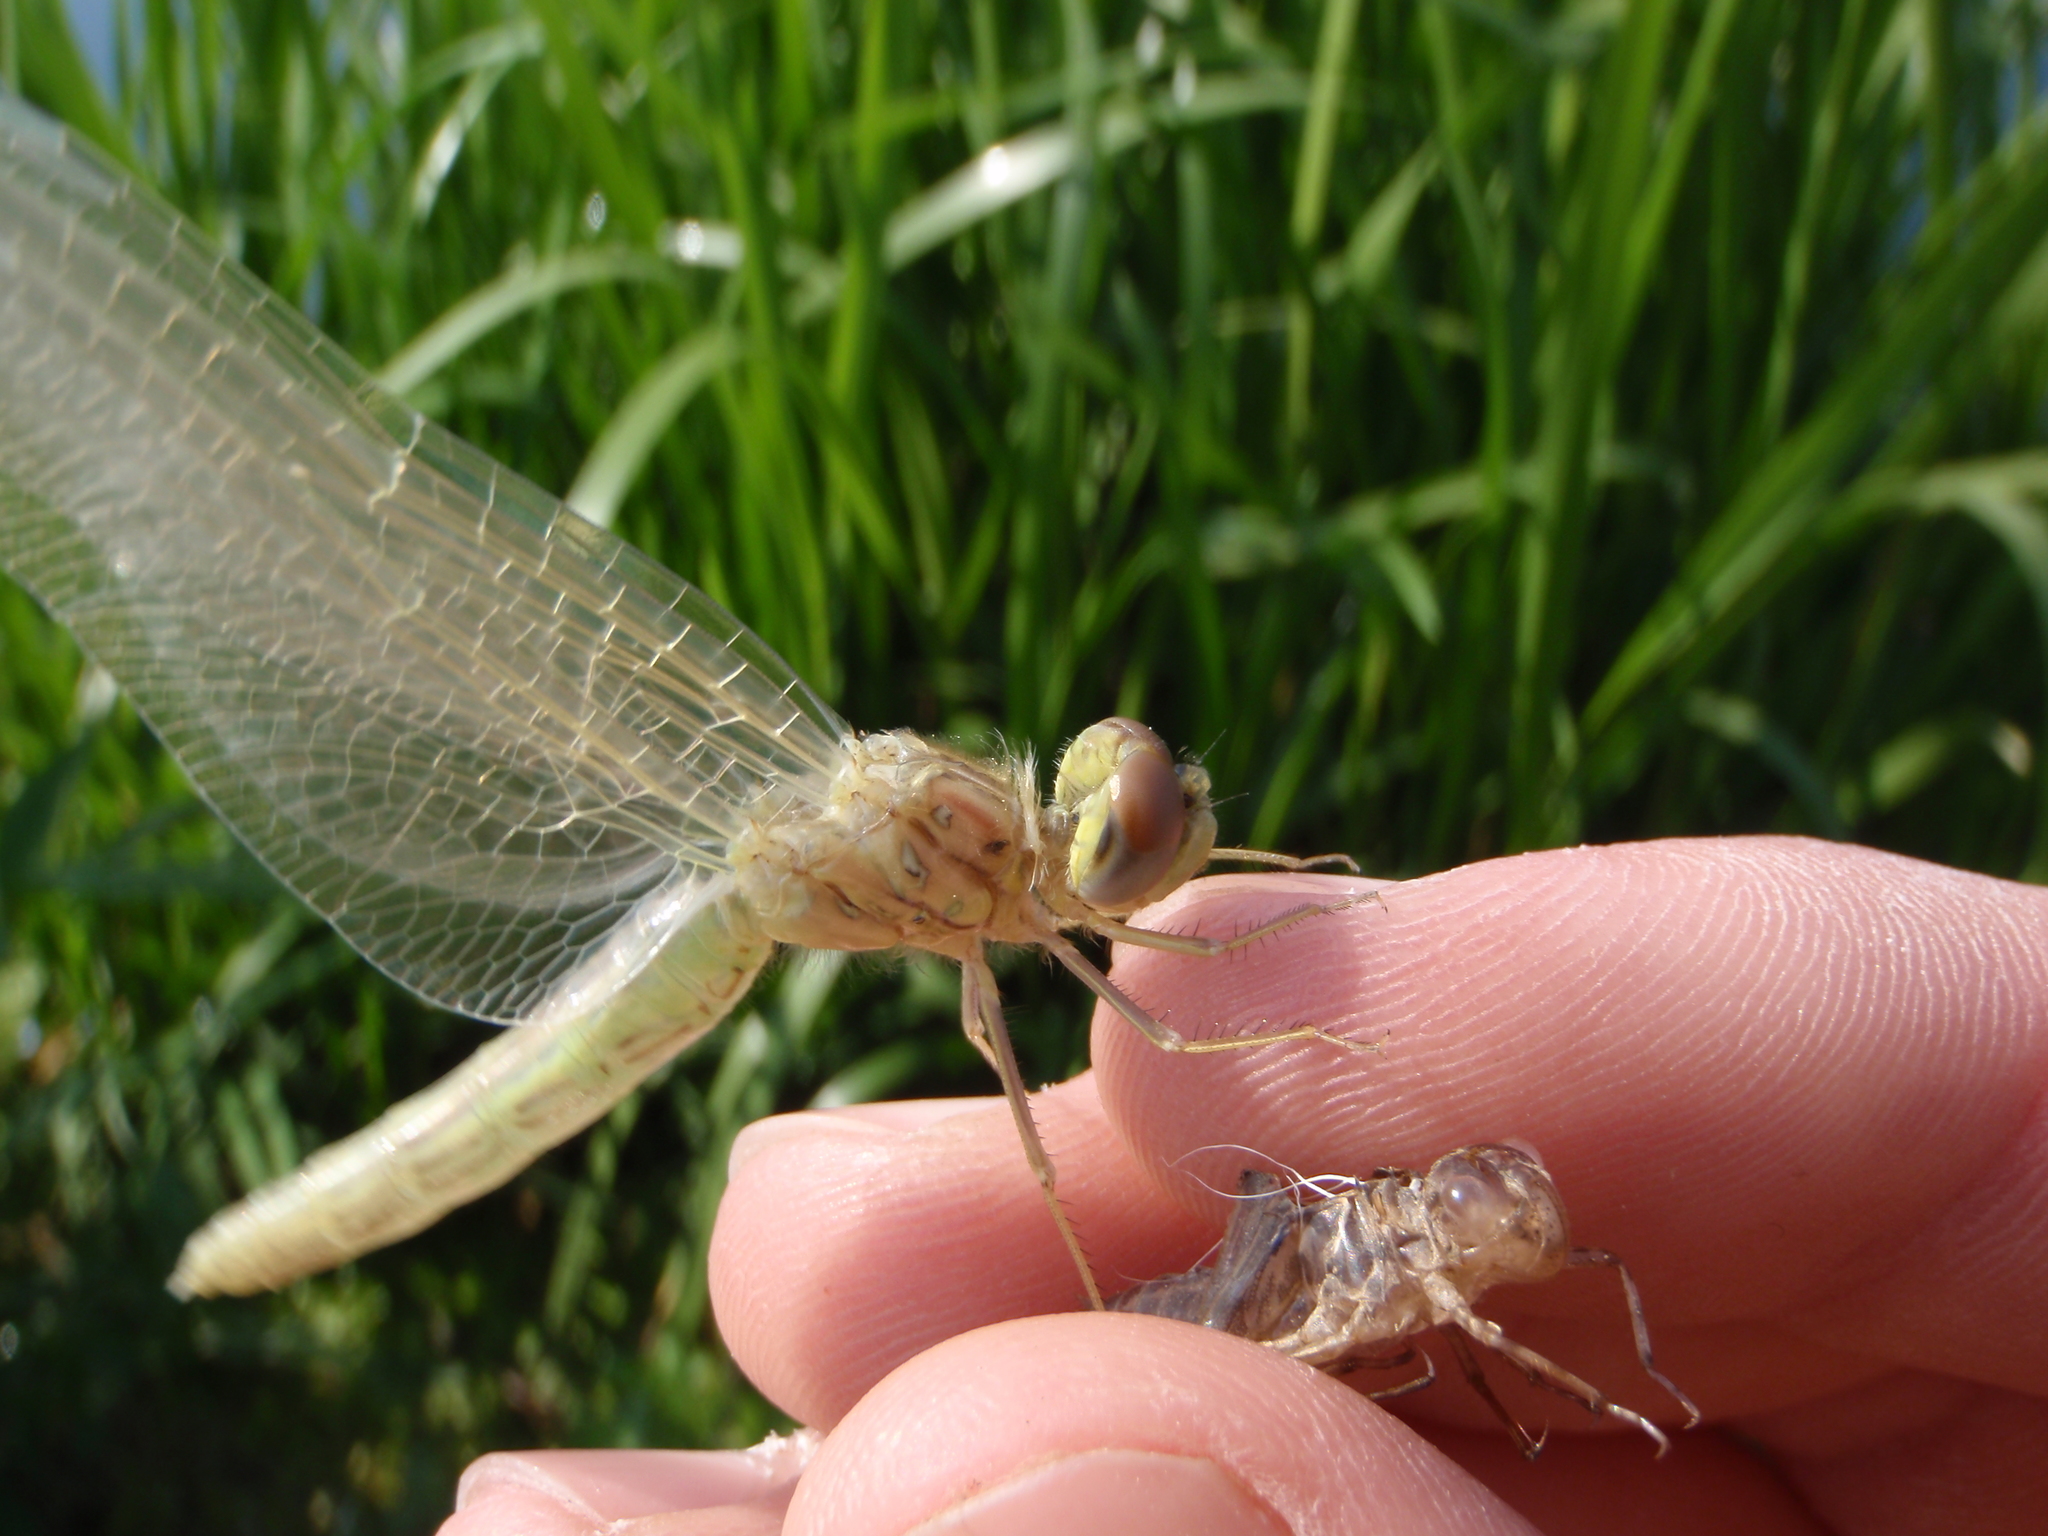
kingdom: Animalia
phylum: Arthropoda
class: Insecta
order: Odonata
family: Libellulidae
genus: Sympetrum
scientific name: Sympetrum fonscolombii
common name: Red-veined darter
